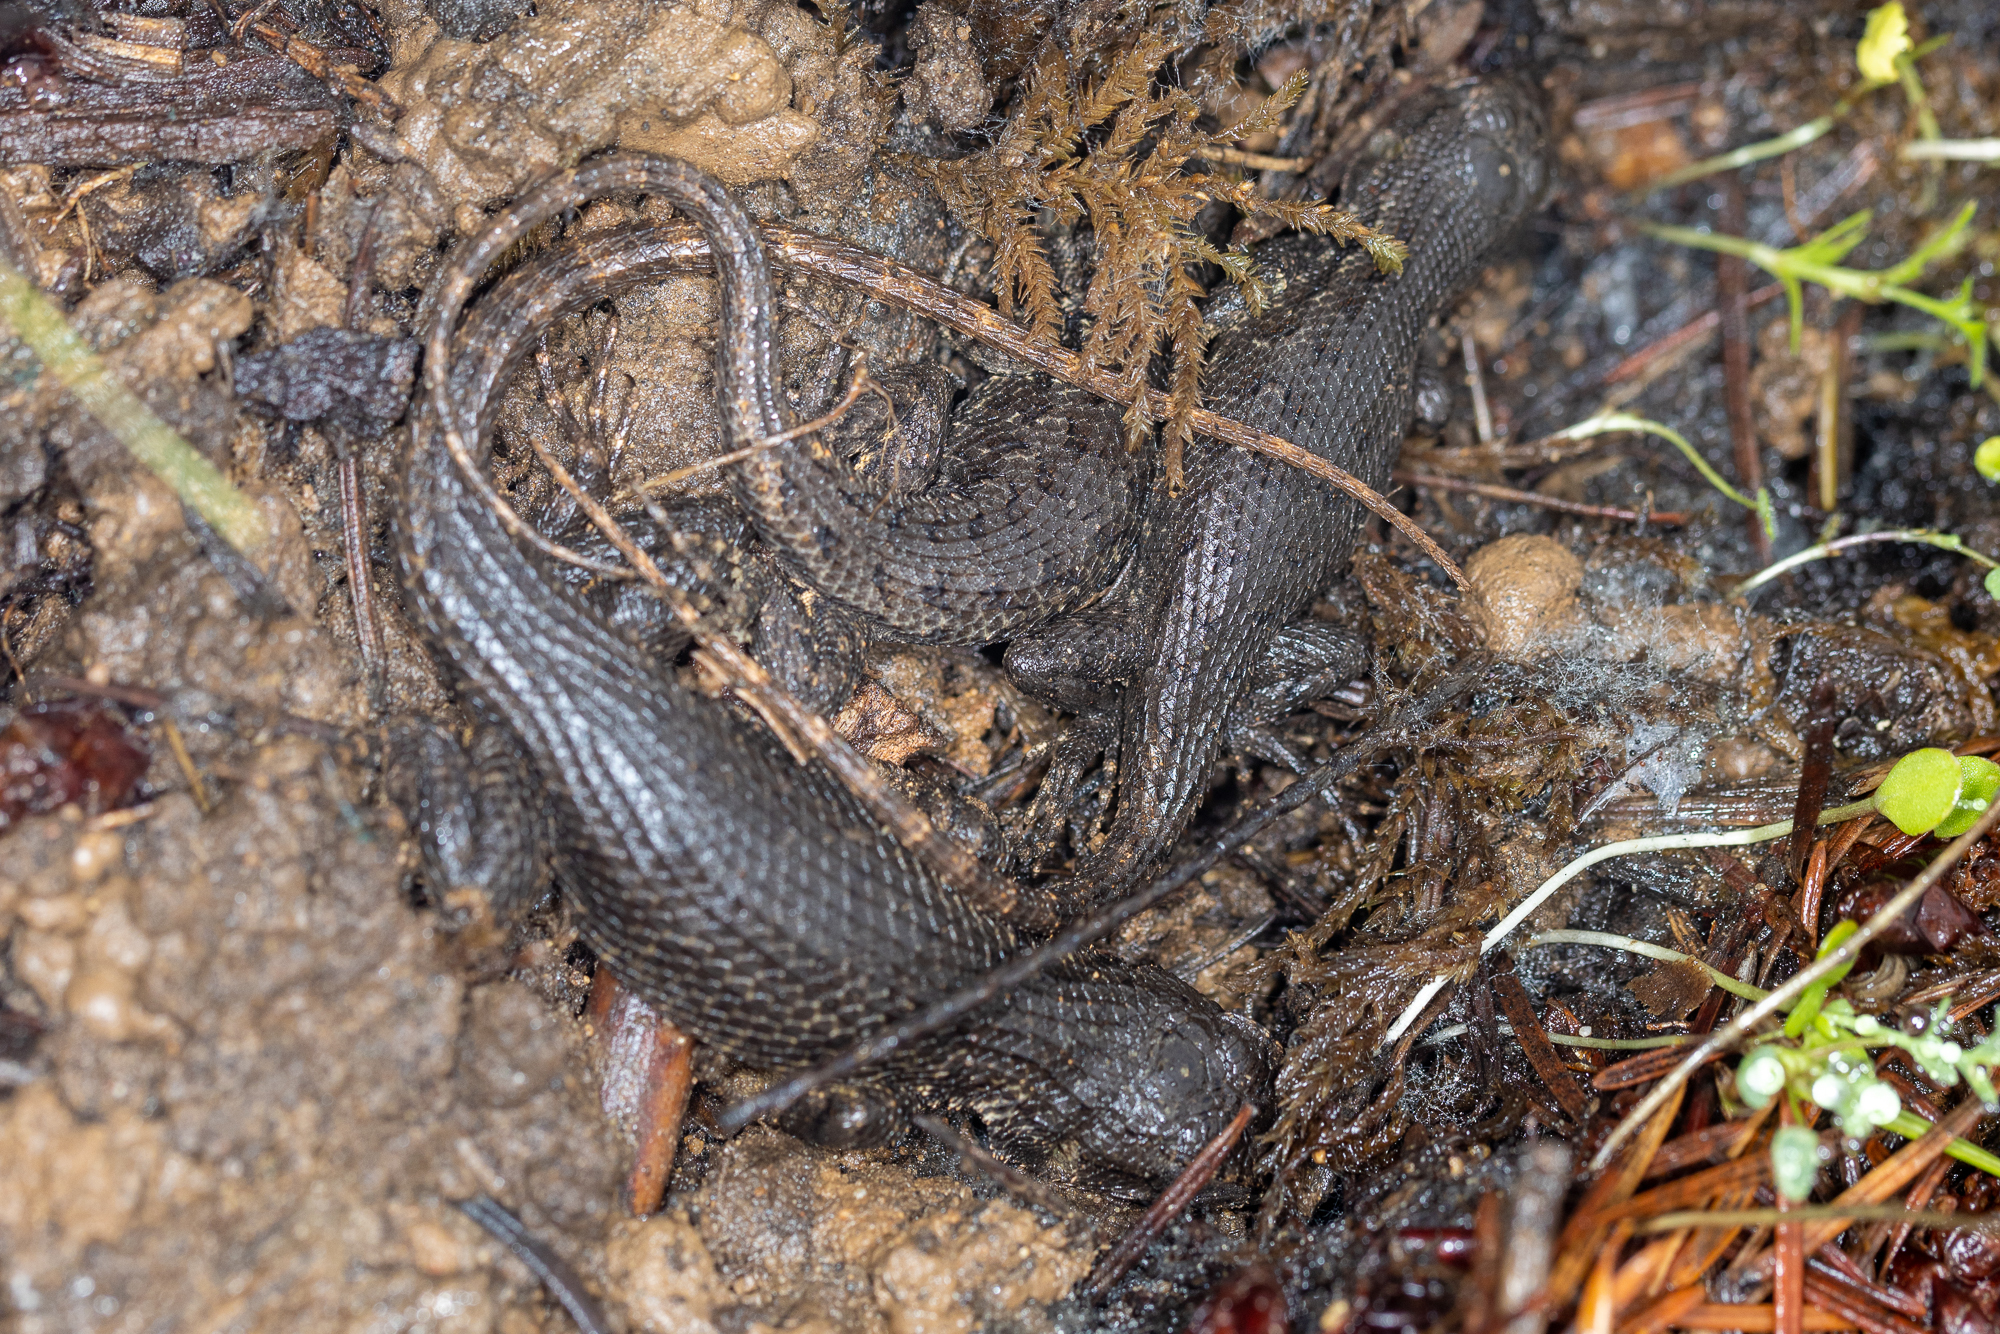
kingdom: Animalia
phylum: Chordata
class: Squamata
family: Phrynosomatidae
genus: Sceloporus
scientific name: Sceloporus occidentalis
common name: Western fence lizard
